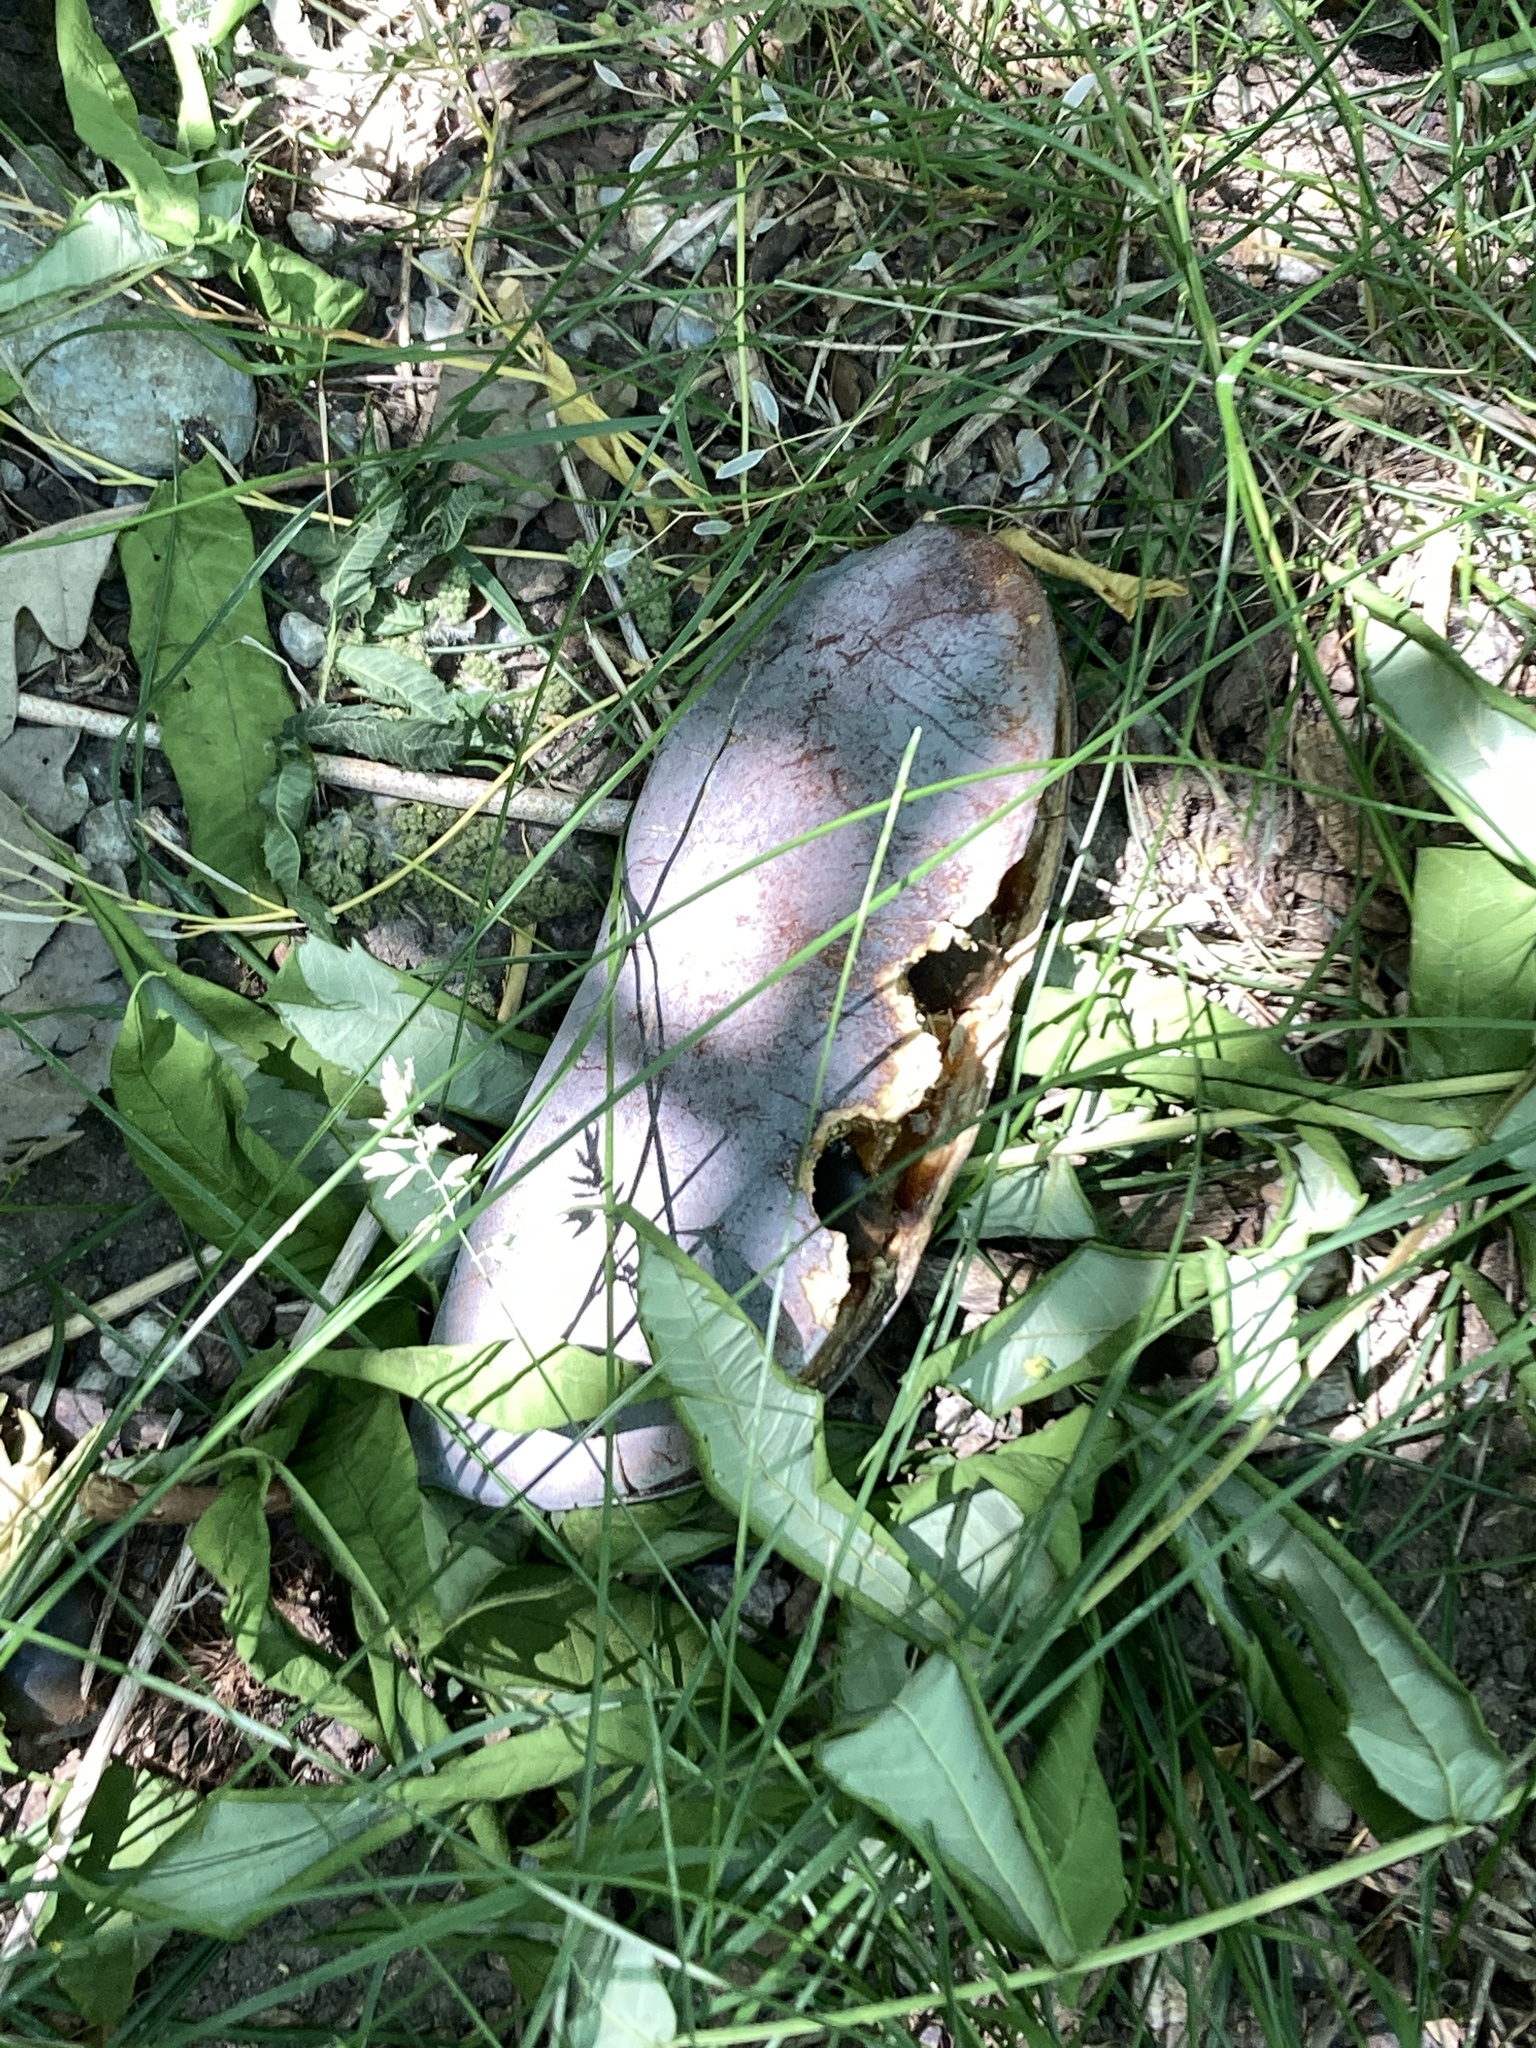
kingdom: Plantae
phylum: Tracheophyta
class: Magnoliopsida
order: Fabales
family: Fabaceae
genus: Gymnocladus
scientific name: Gymnocladus dioicus
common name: Kentucky coffee-tree
